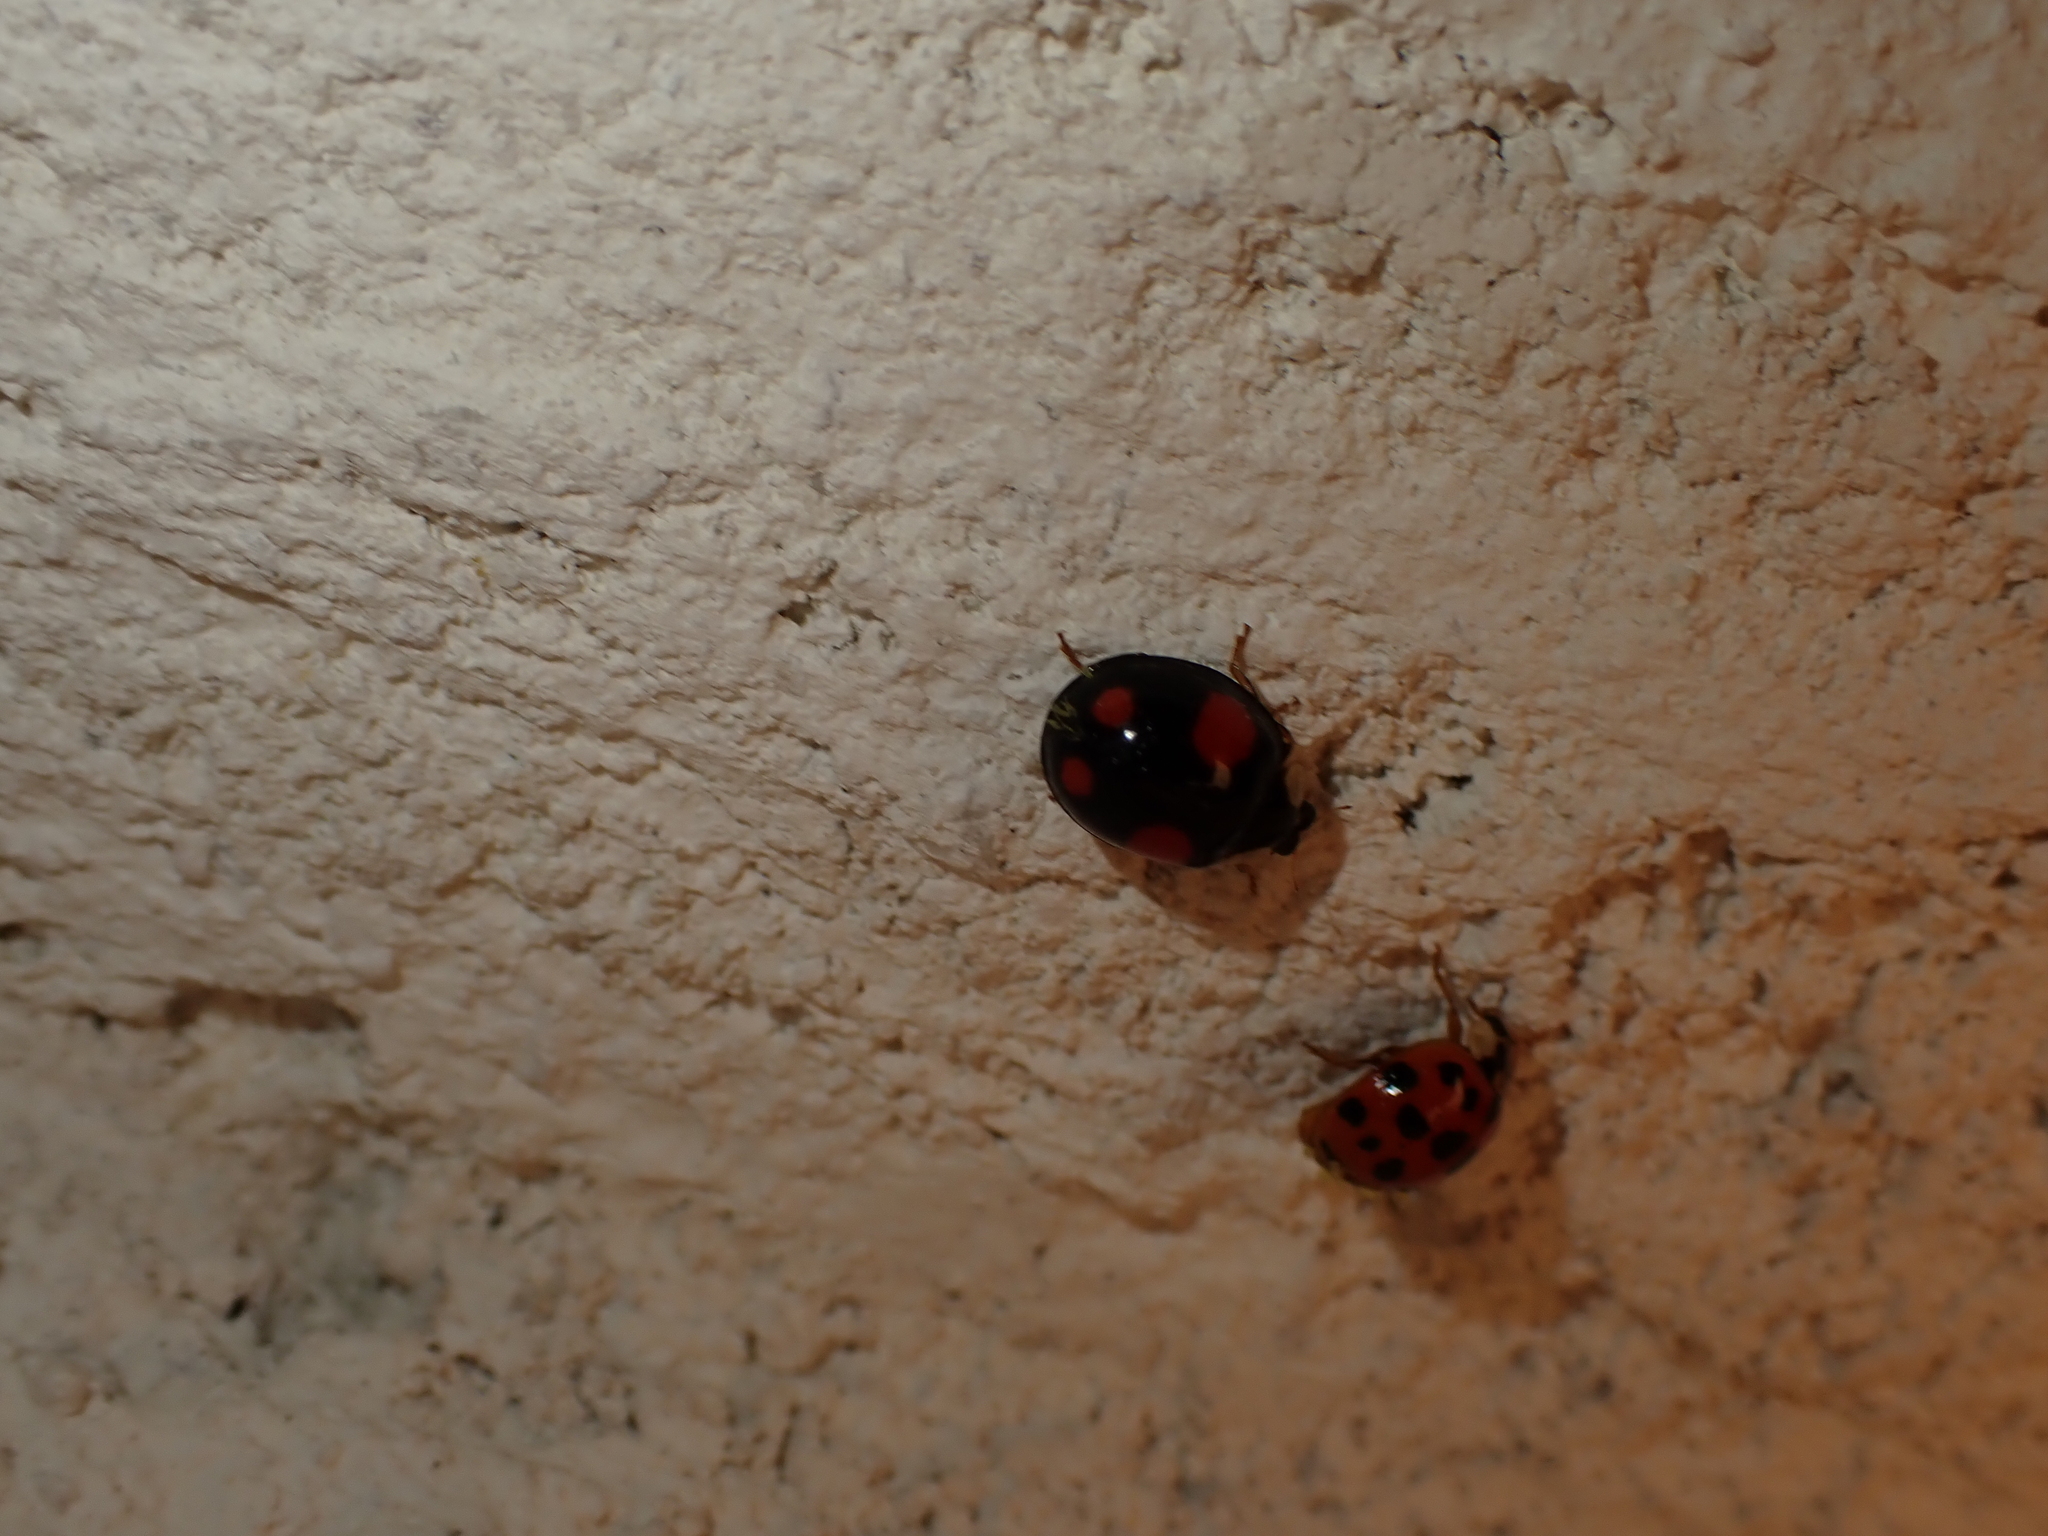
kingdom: Animalia
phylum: Arthropoda
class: Insecta
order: Coleoptera
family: Coccinellidae
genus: Harmonia
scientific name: Harmonia axyridis
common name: Harlequin ladybird
